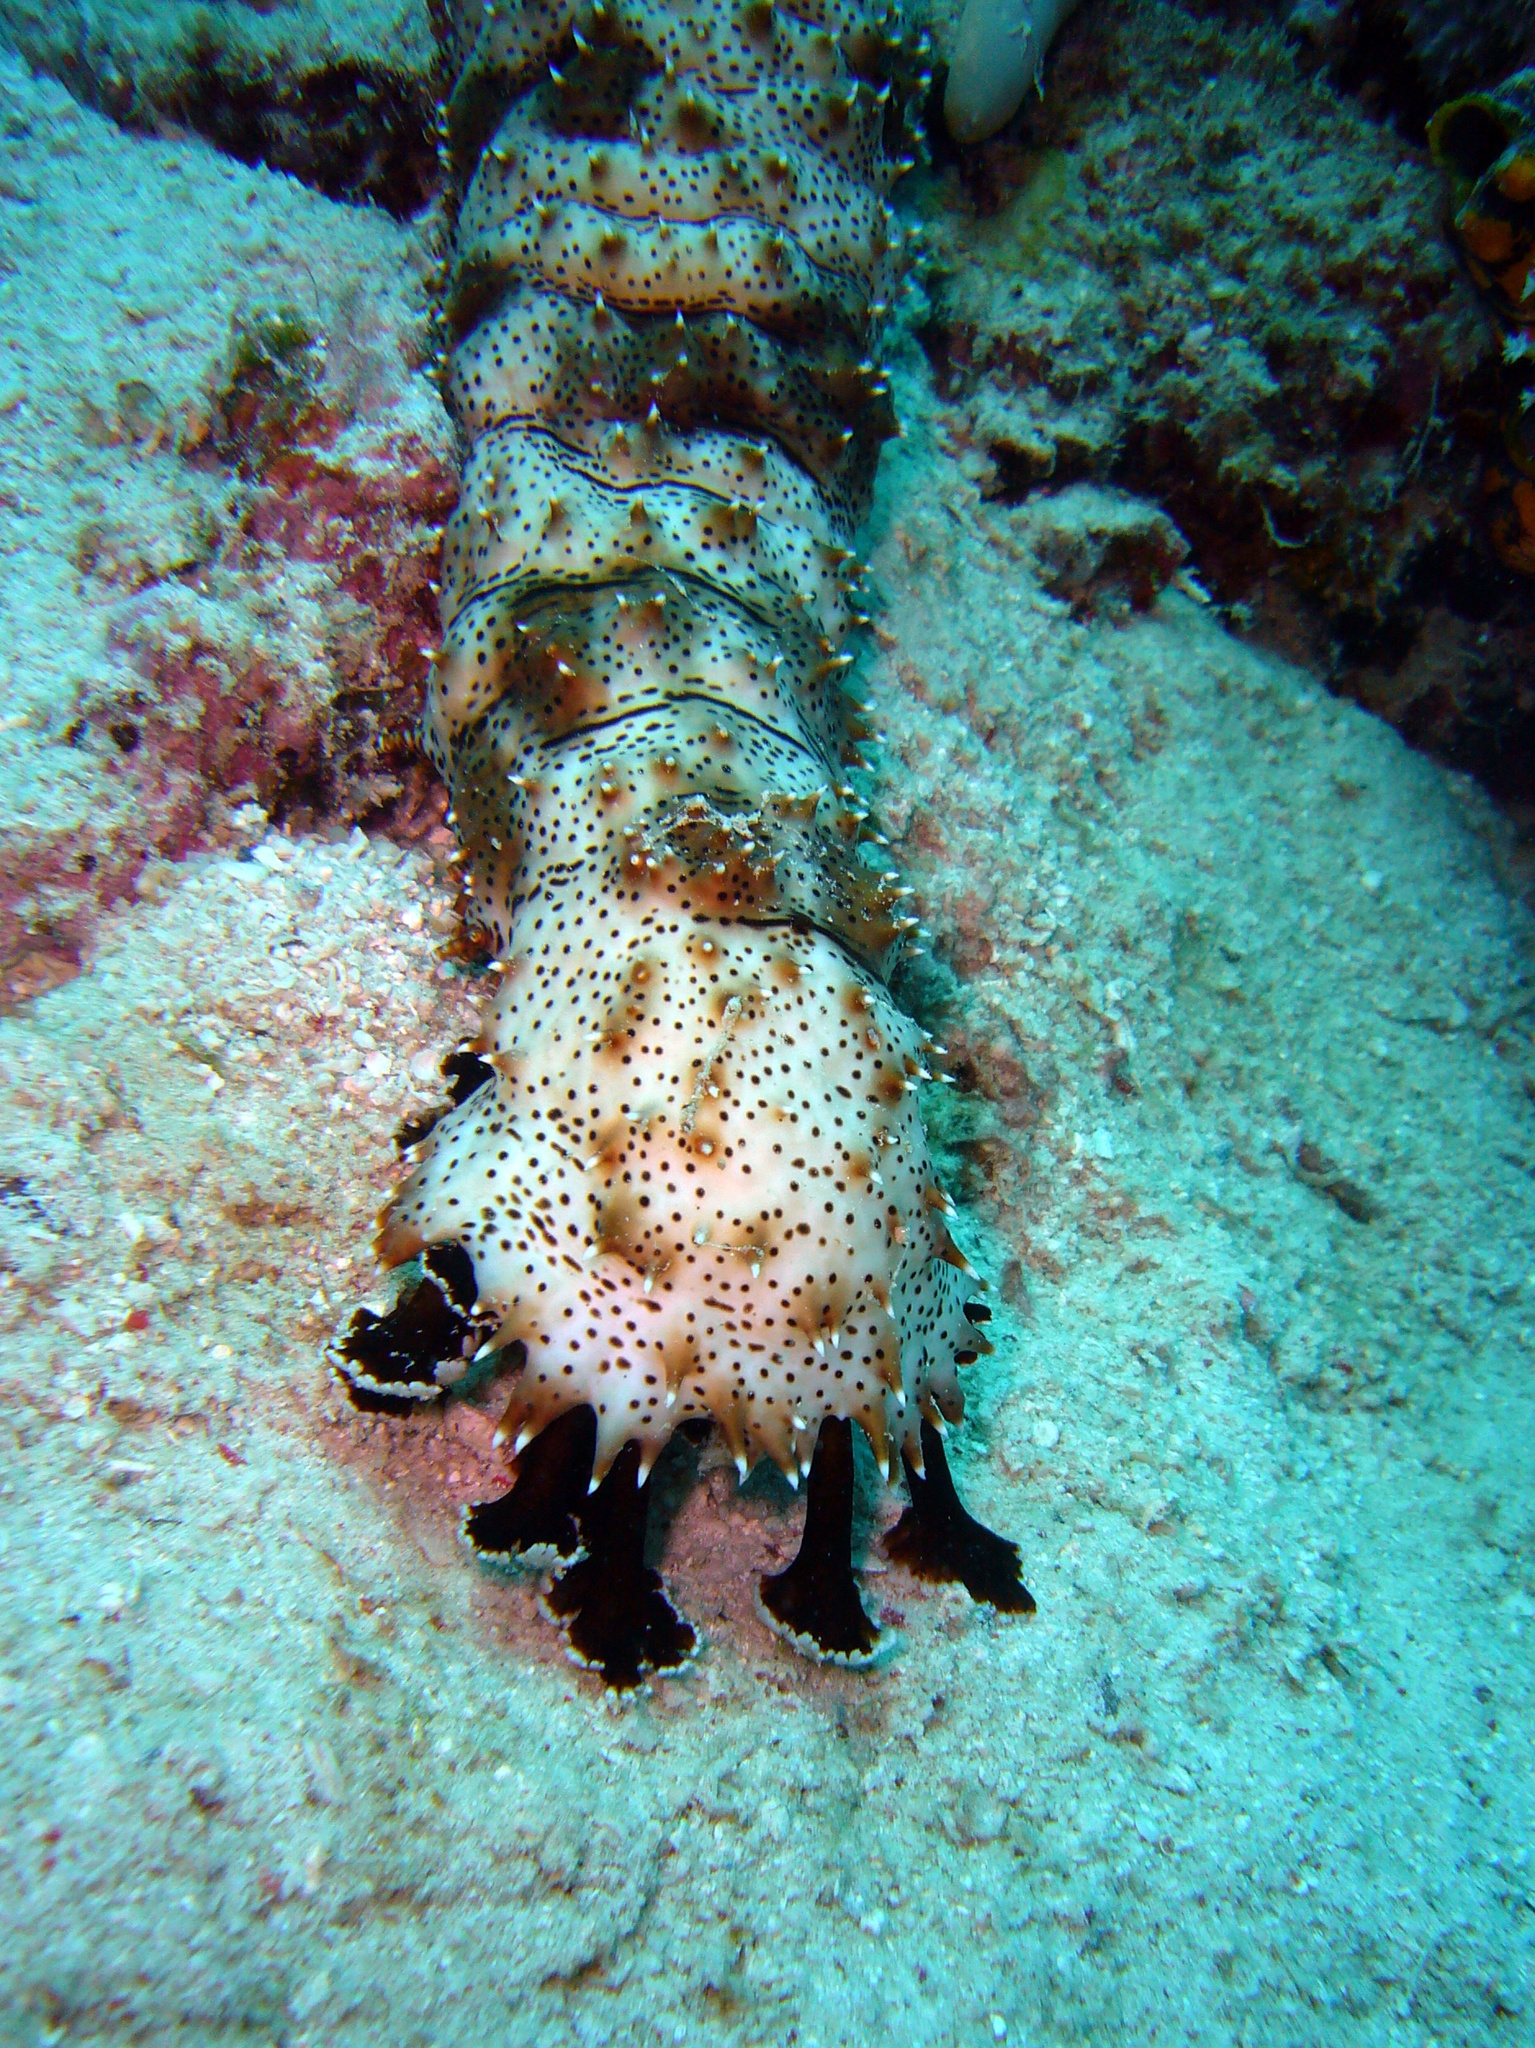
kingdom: Animalia
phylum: Echinodermata
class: Holothuroidea
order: Holothuriida
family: Holothuriidae
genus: Pearsonothuria
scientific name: Pearsonothuria graeffei
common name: Blackspotted sea cucumber
